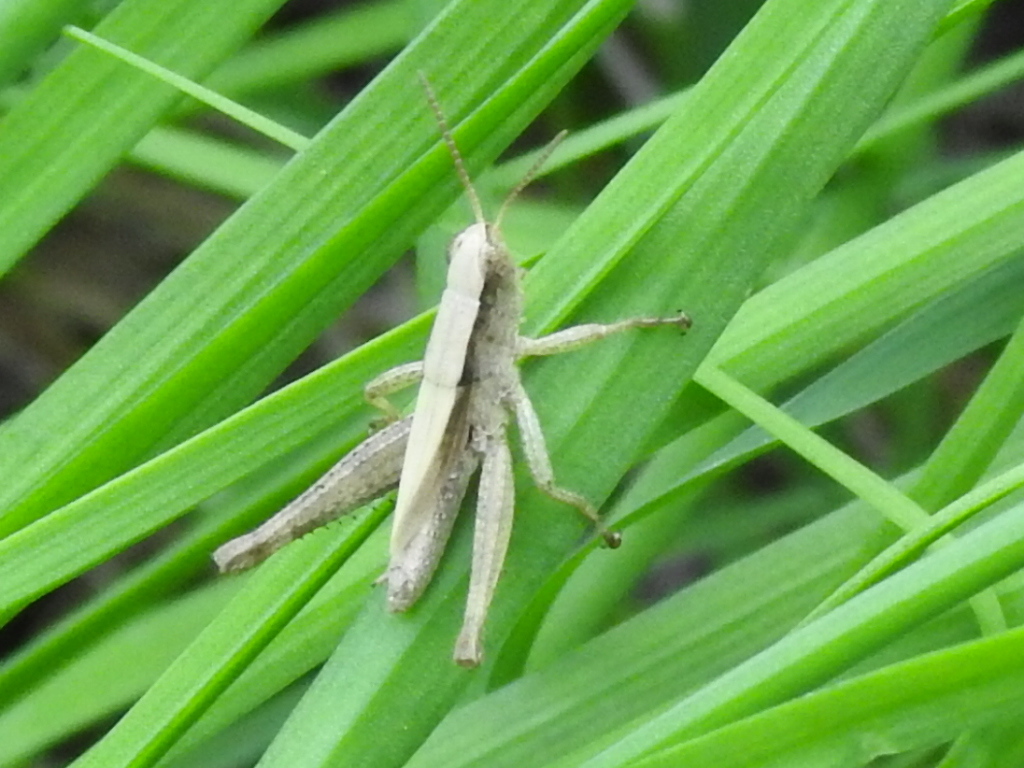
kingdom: Animalia
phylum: Arthropoda
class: Insecta
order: Orthoptera
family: Acrididae
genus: Dichromorpha
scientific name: Dichromorpha viridis
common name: Short-winged green grasshopper
